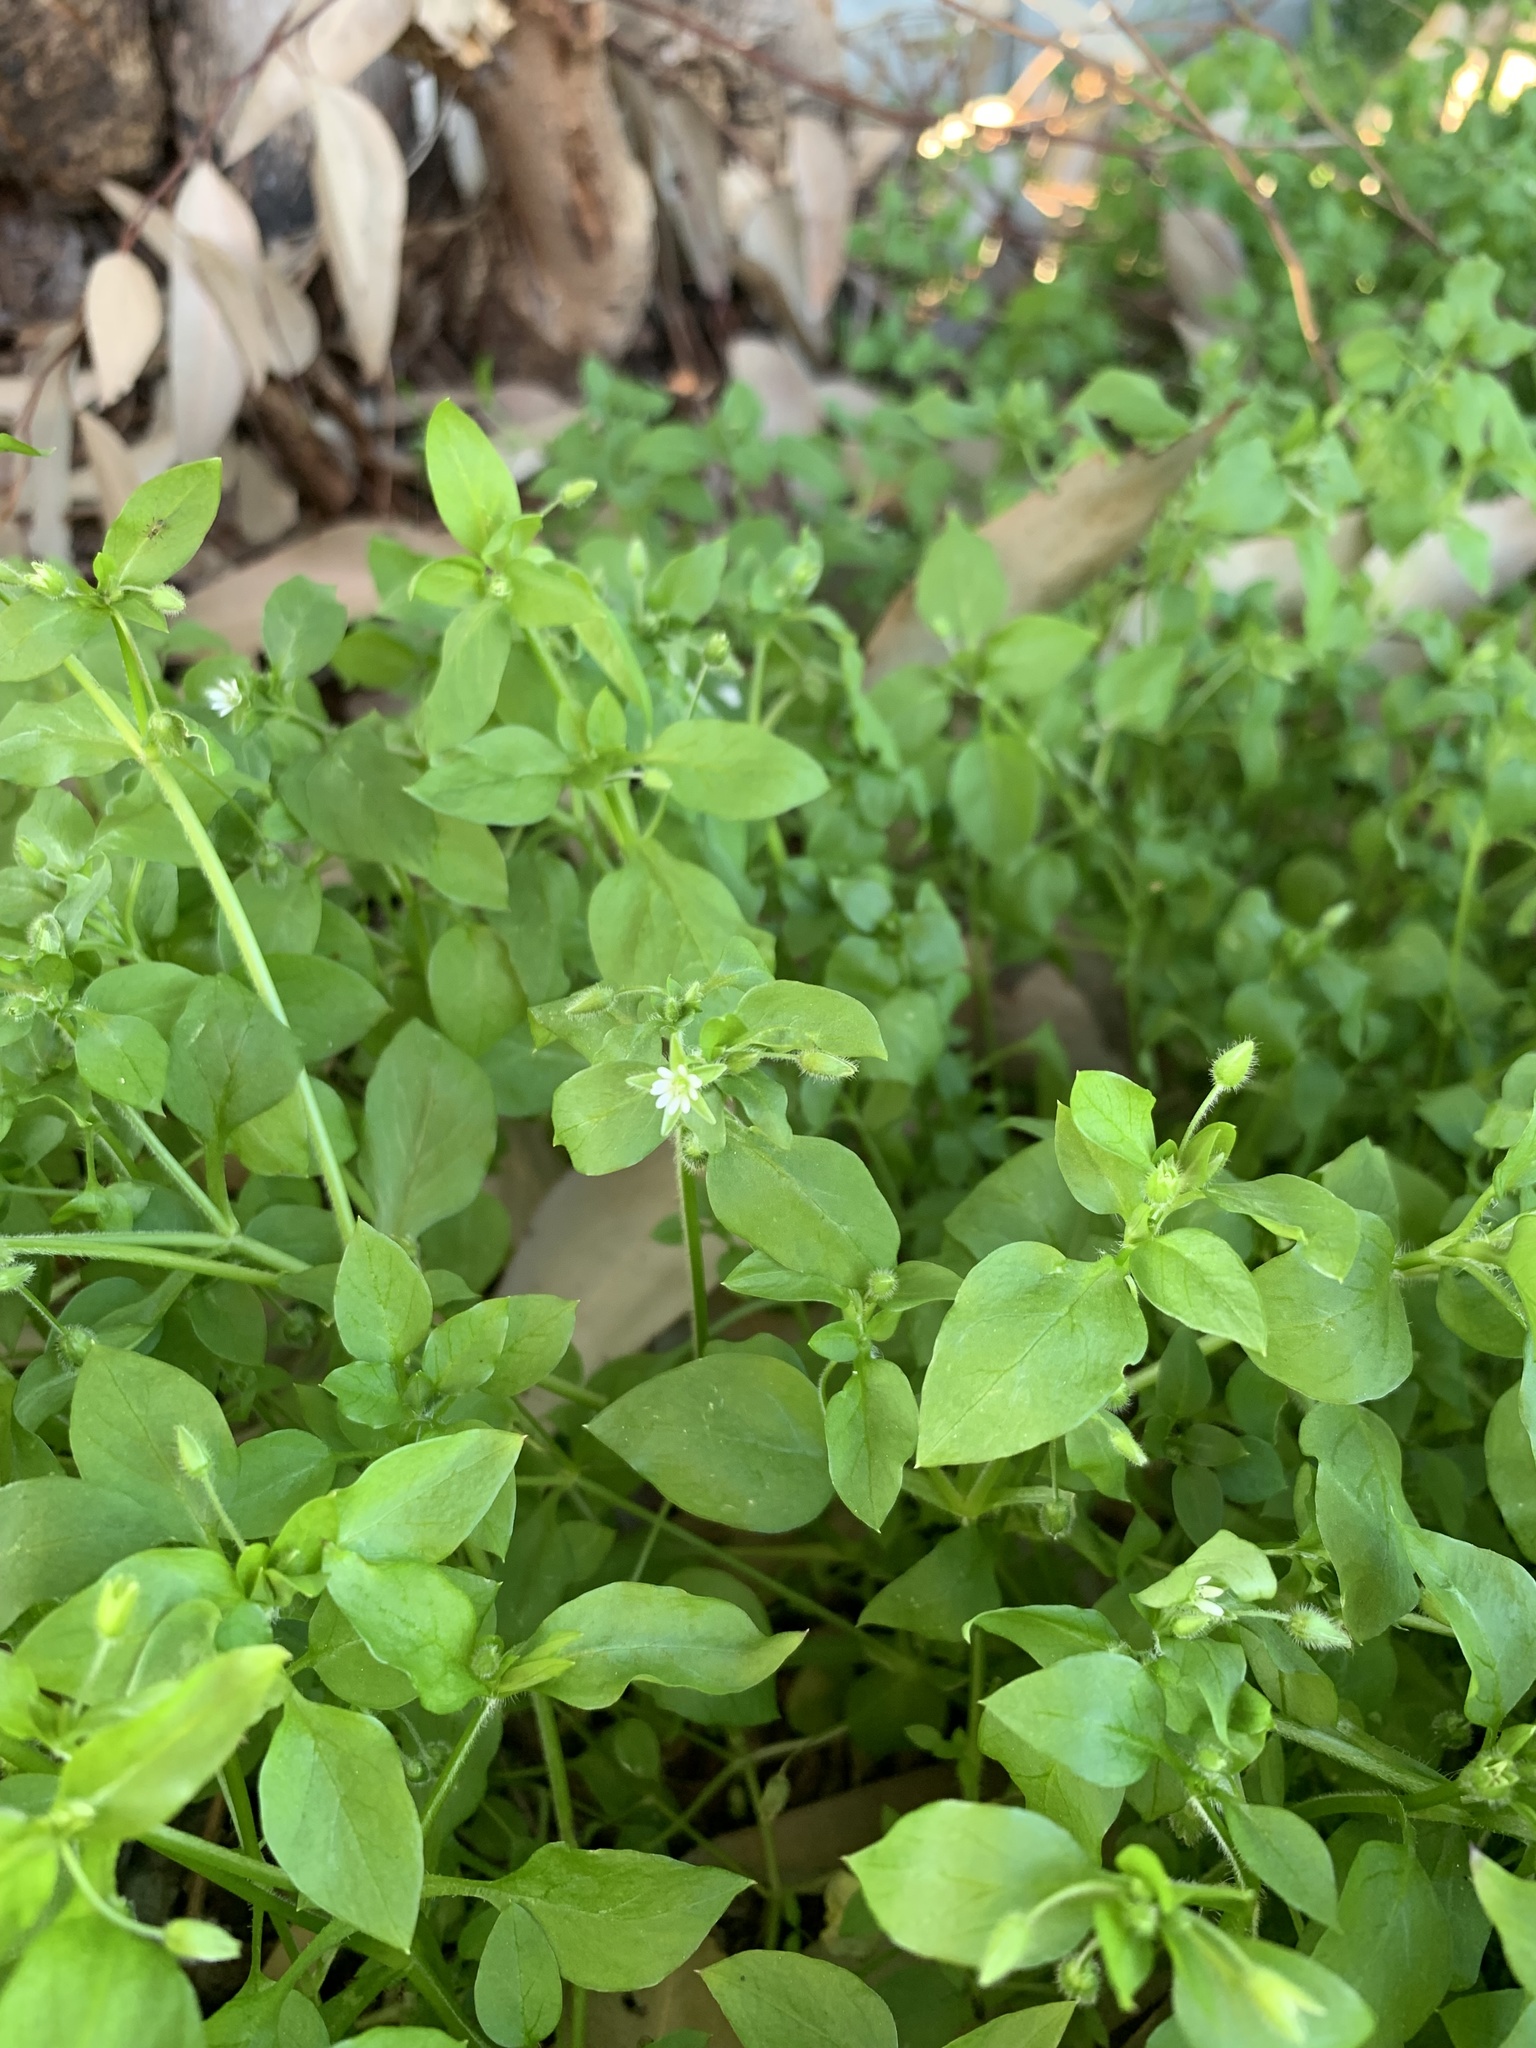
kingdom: Plantae
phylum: Tracheophyta
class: Magnoliopsida
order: Caryophyllales
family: Caryophyllaceae
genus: Stellaria
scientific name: Stellaria media
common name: Common chickweed
